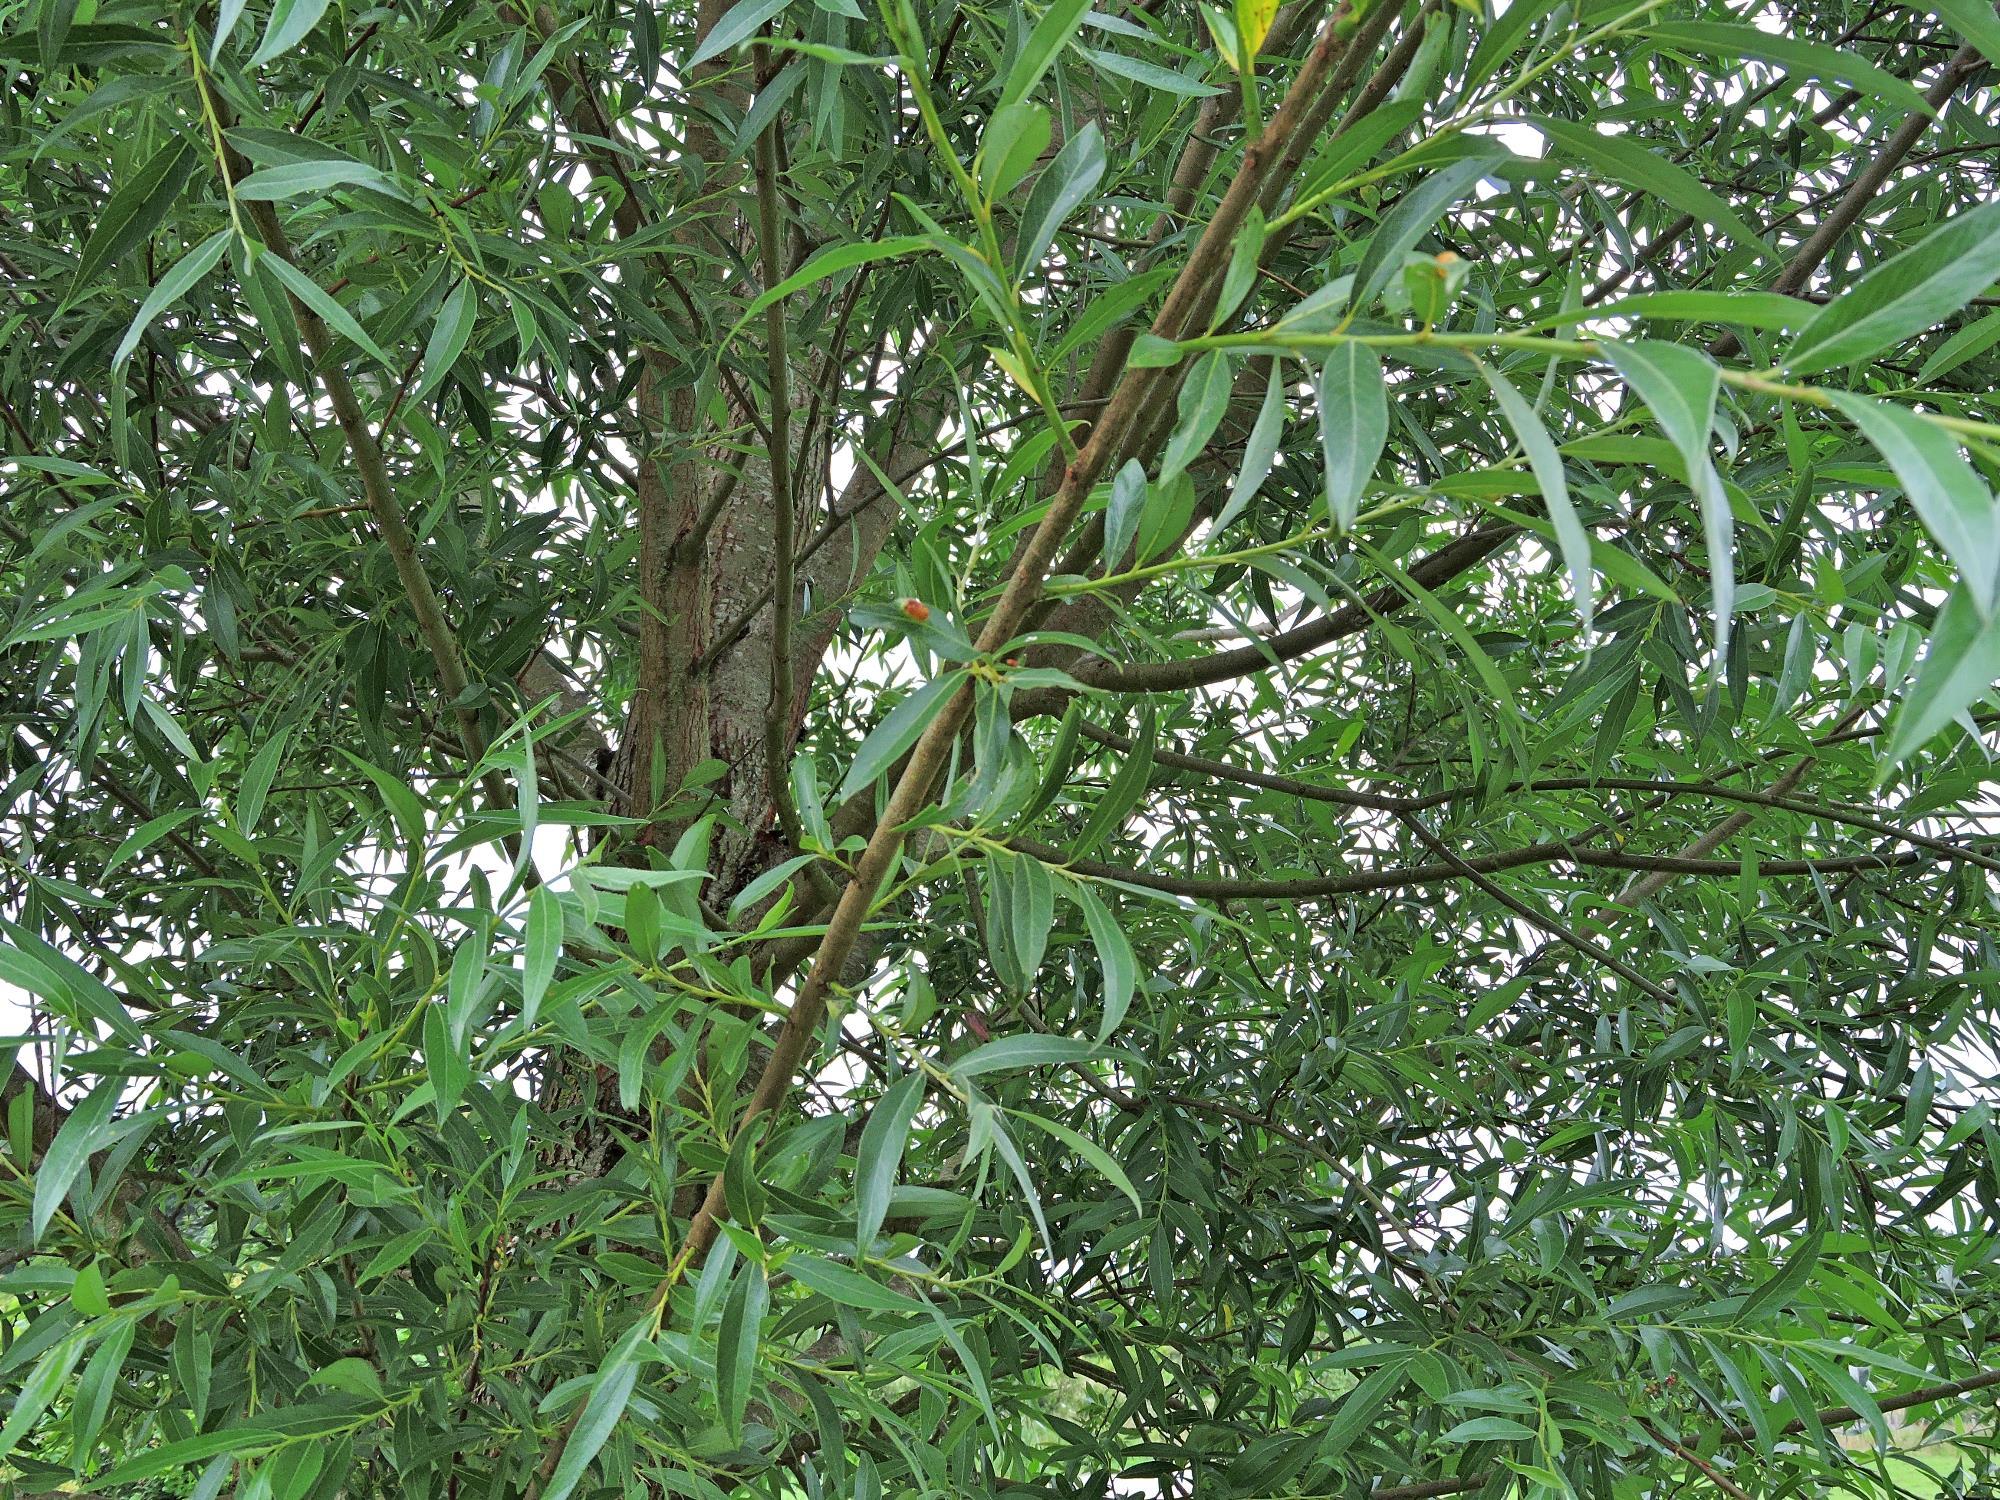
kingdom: Plantae
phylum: Tracheophyta
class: Magnoliopsida
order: Malpighiales
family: Salicaceae
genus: Salix
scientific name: Salix alba
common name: White willow
